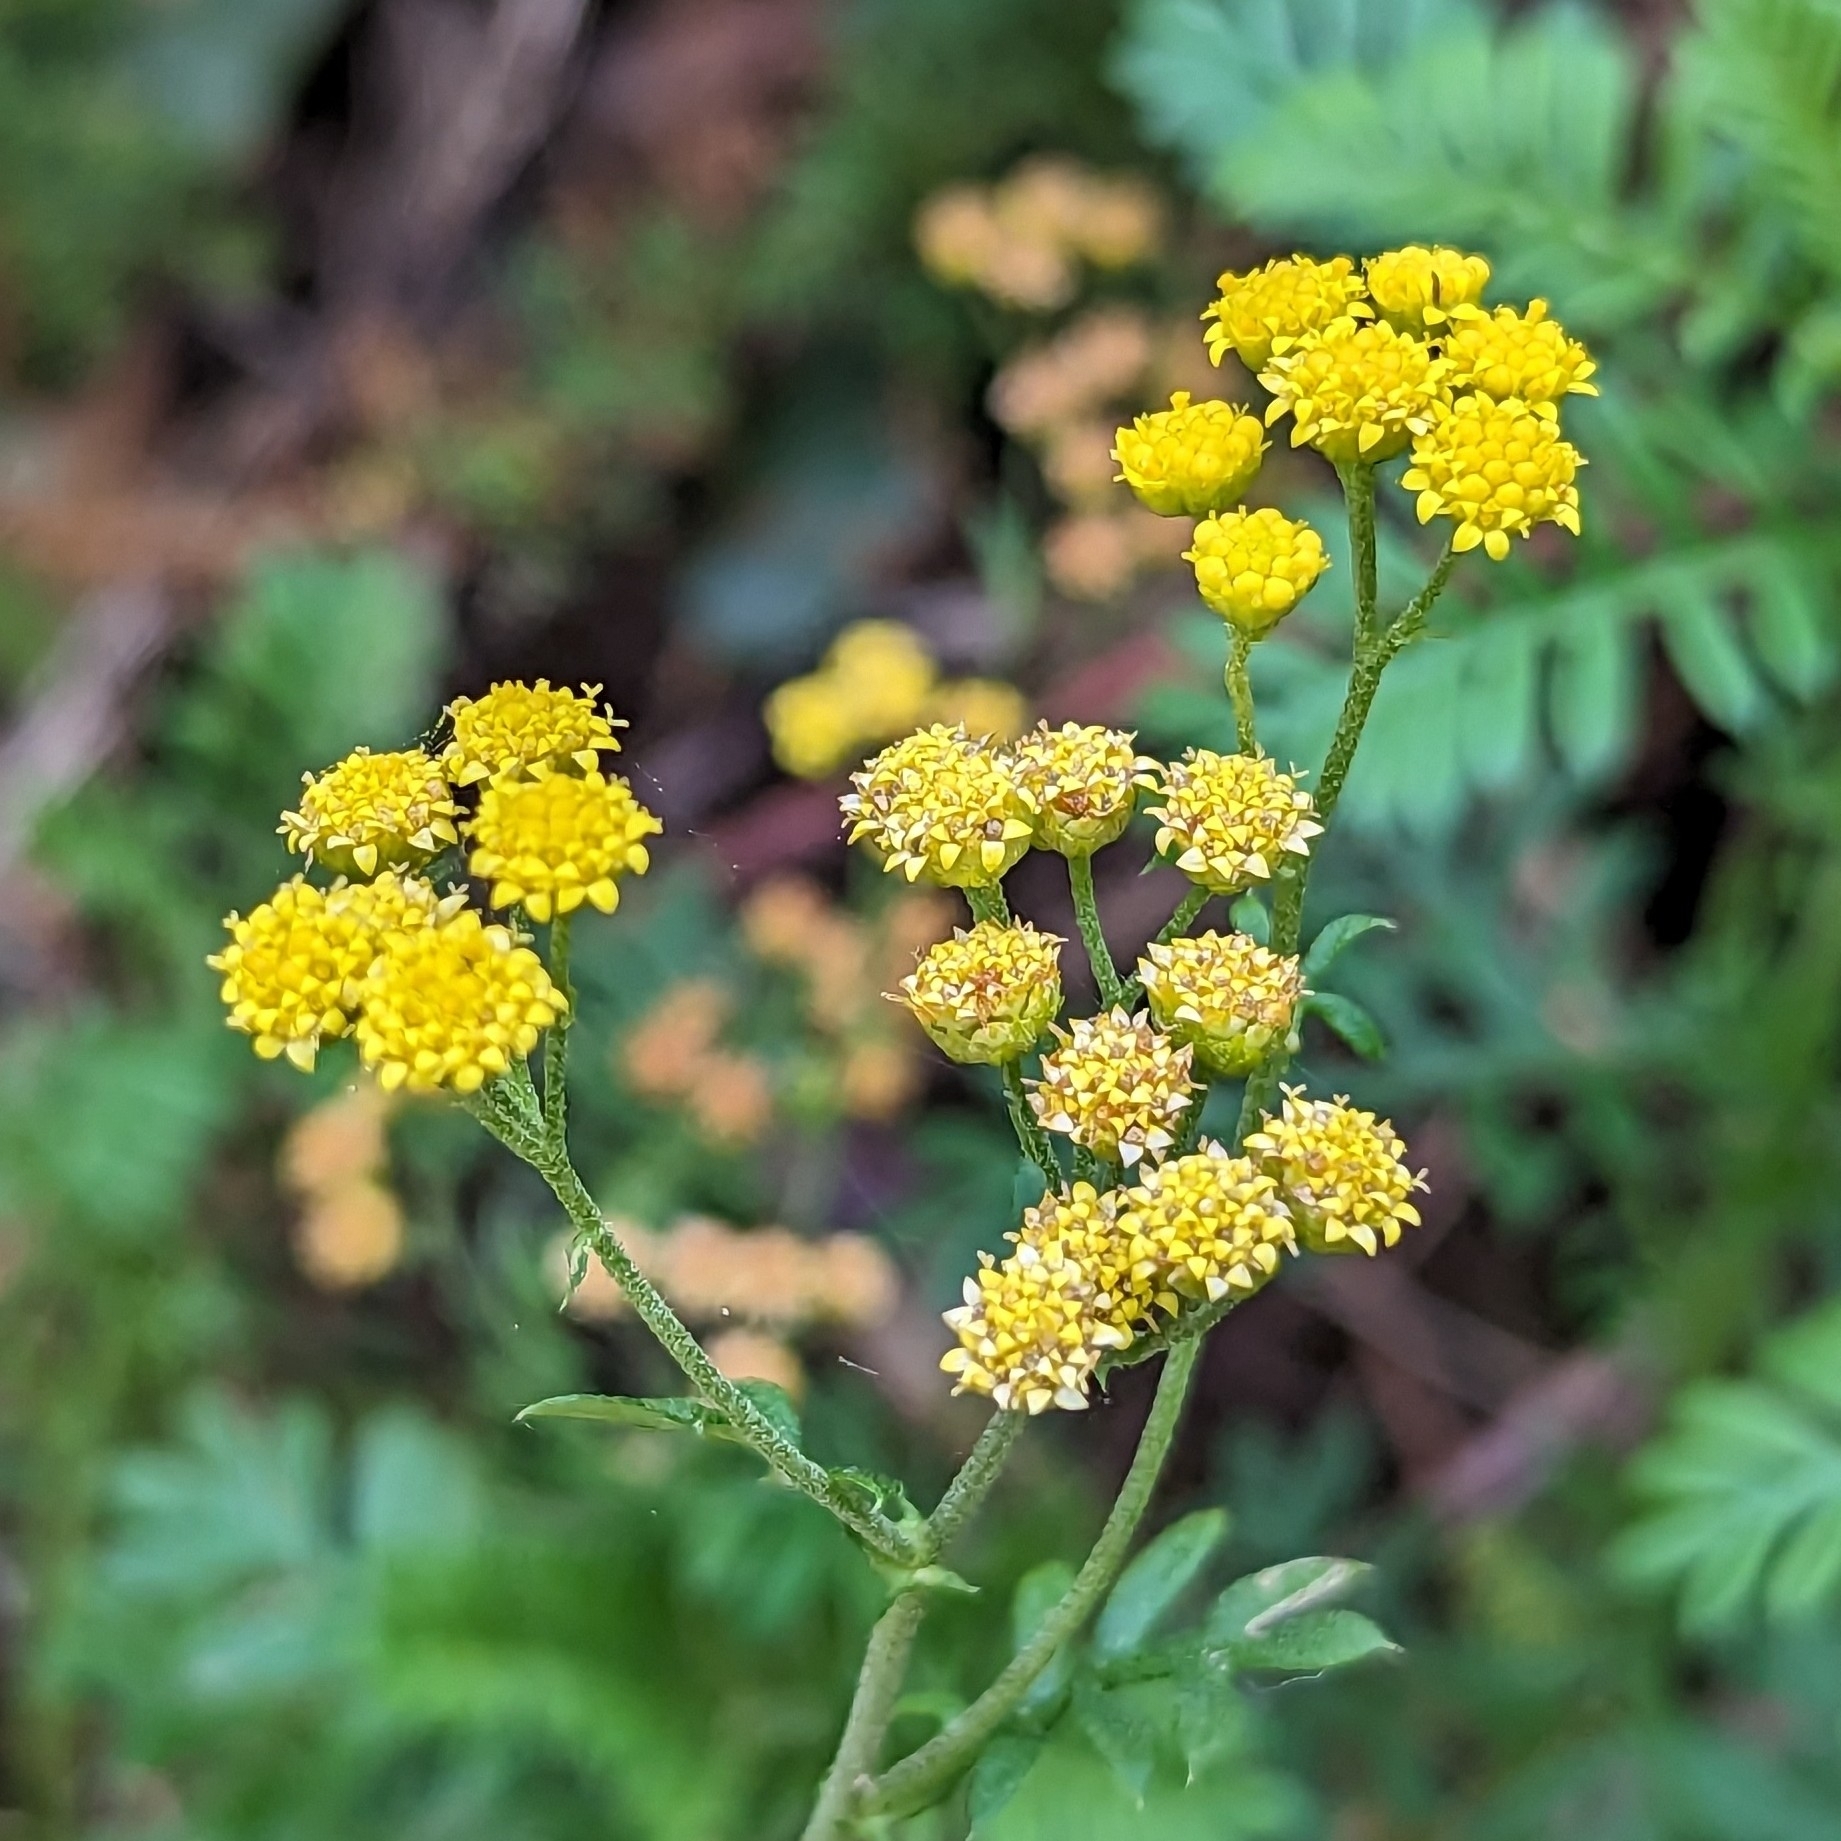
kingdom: Plantae
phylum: Tracheophyta
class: Magnoliopsida
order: Asterales
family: Asteraceae
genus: Hippia
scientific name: Hippia frutescens
